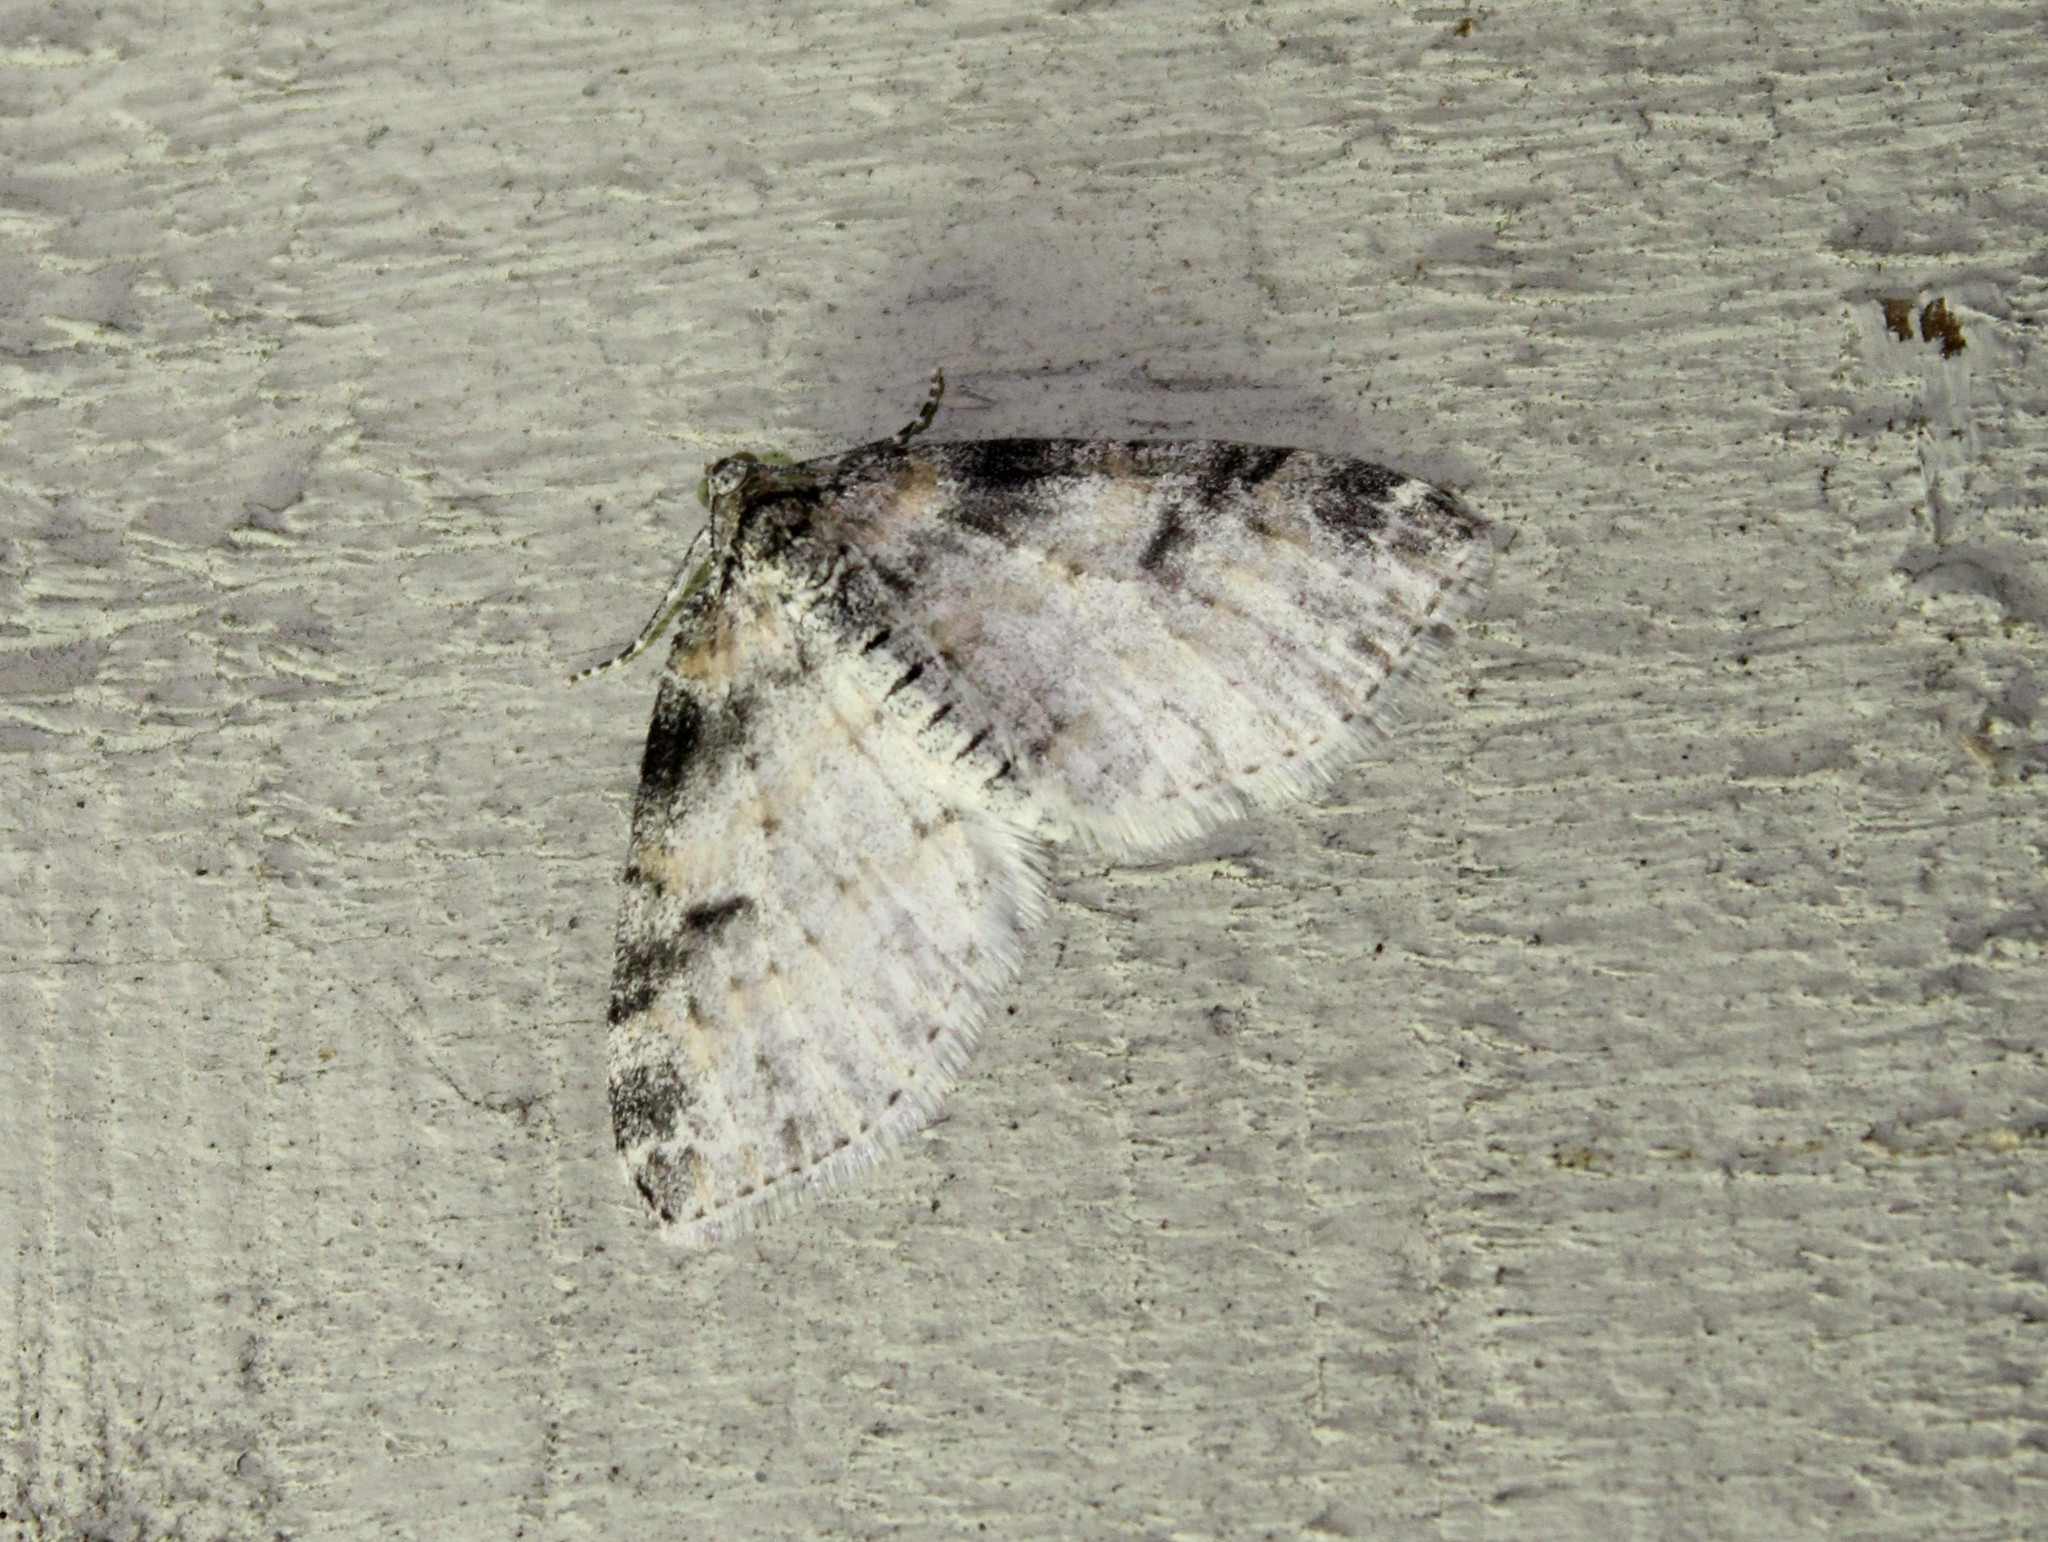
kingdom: Animalia
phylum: Arthropoda
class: Insecta
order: Lepidoptera
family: Geometridae
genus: Lobophora
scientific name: Lobophora nivigerata
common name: Powdered bigwing
